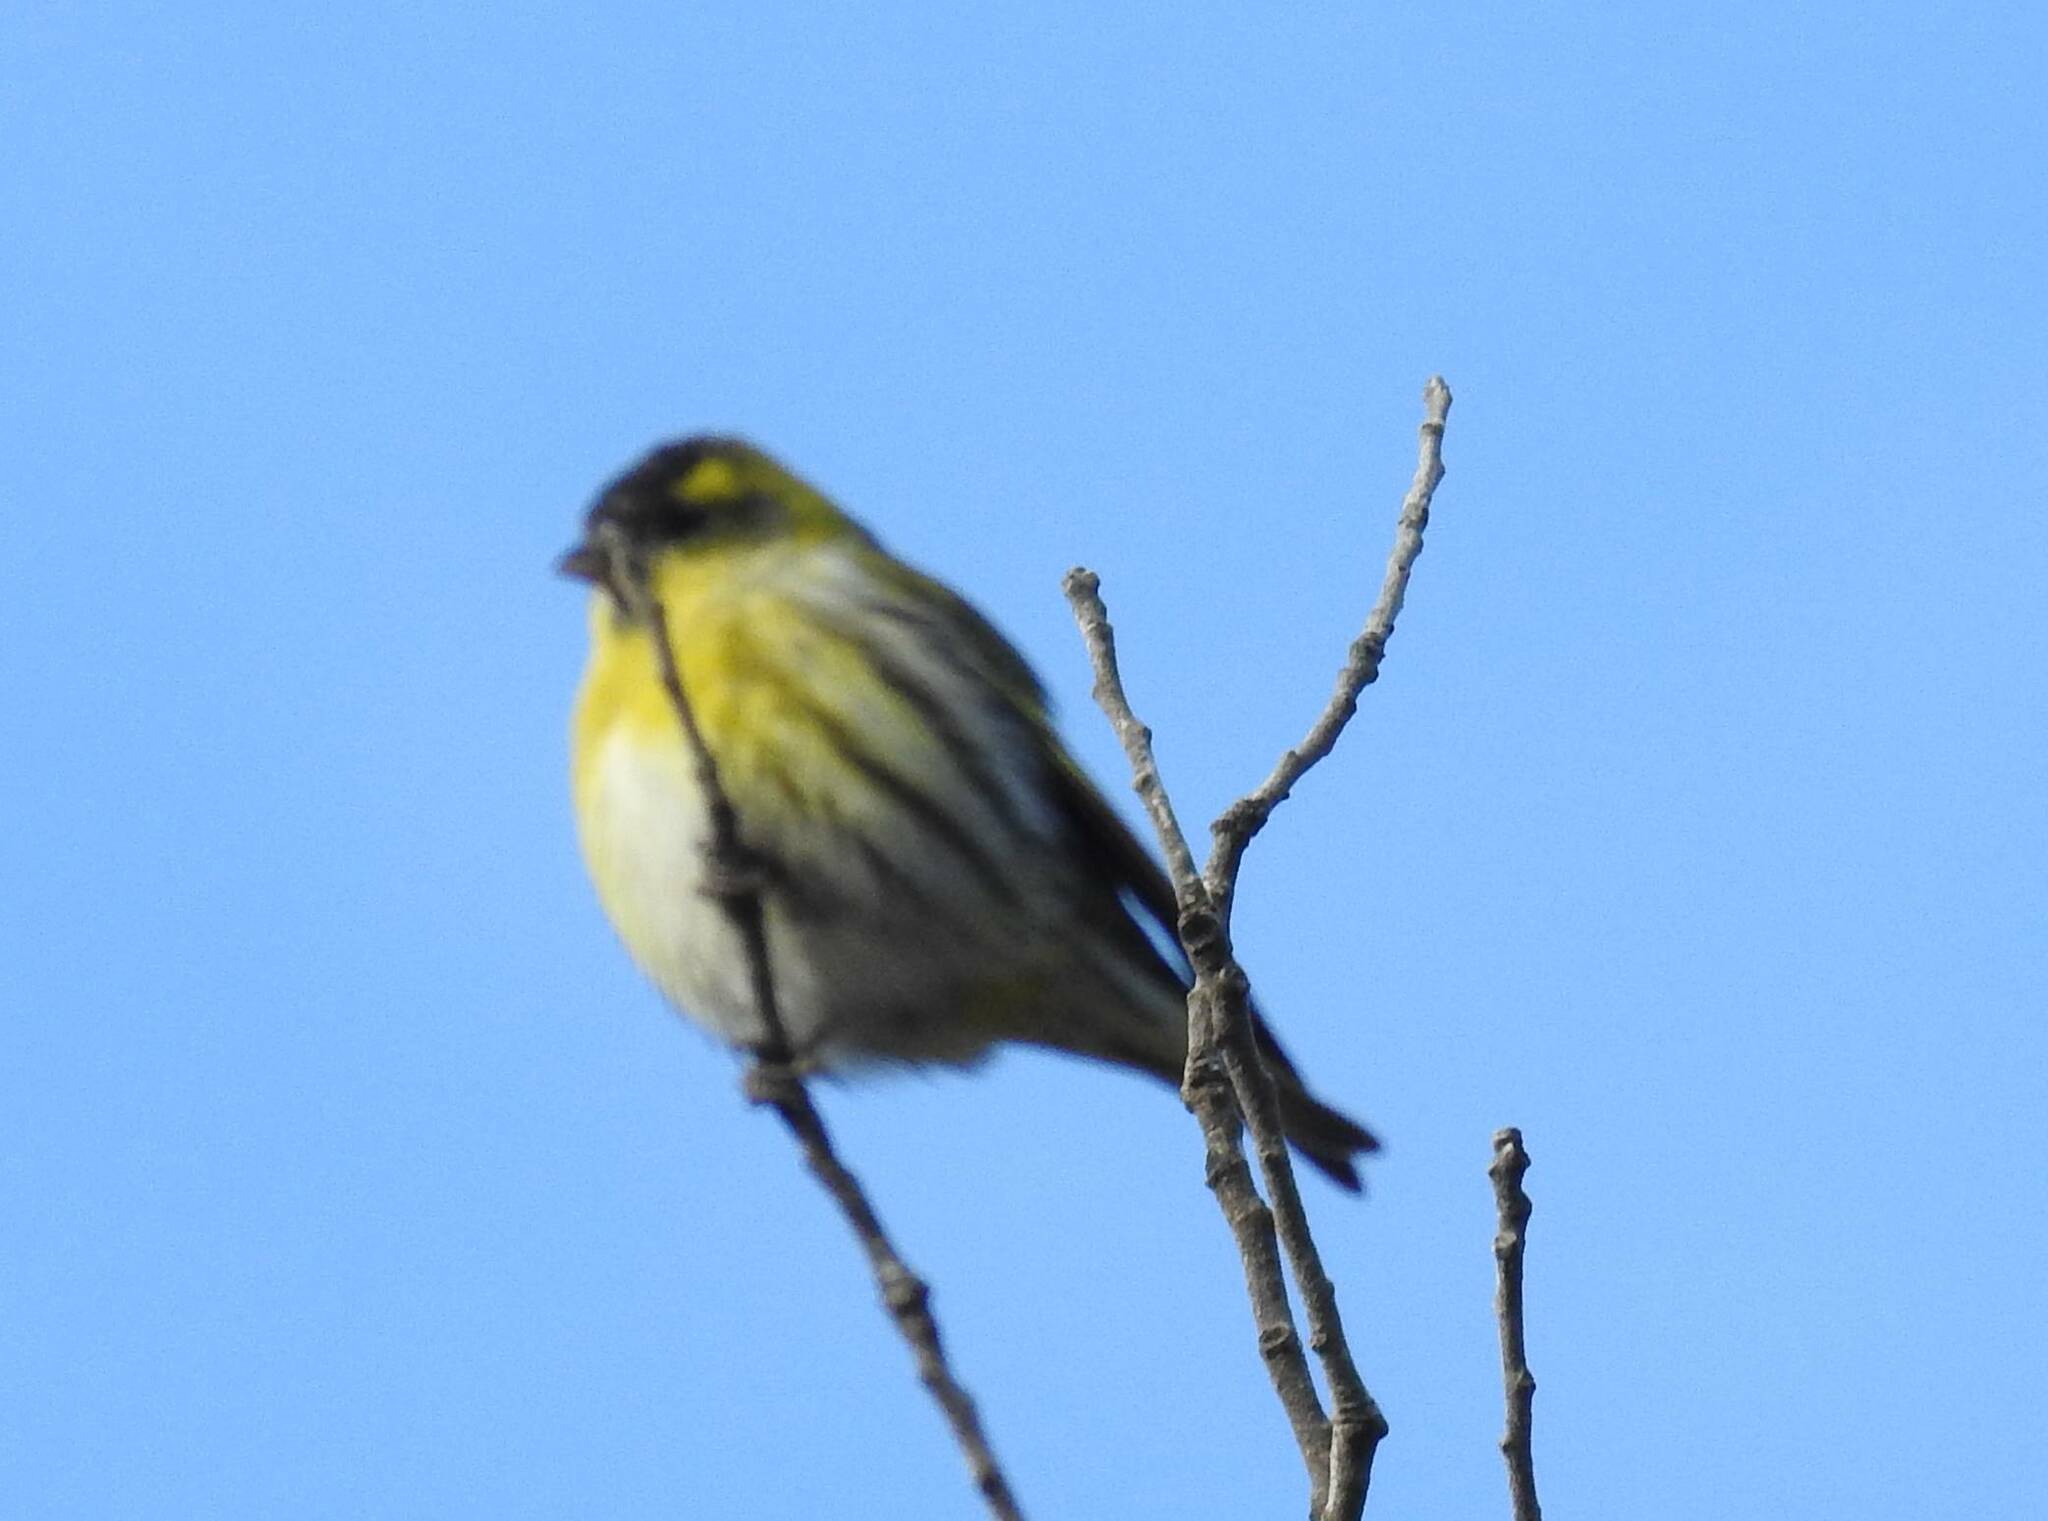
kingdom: Animalia
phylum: Chordata
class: Aves
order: Passeriformes
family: Fringillidae
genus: Spinus
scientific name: Spinus spinus
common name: Eurasian siskin
